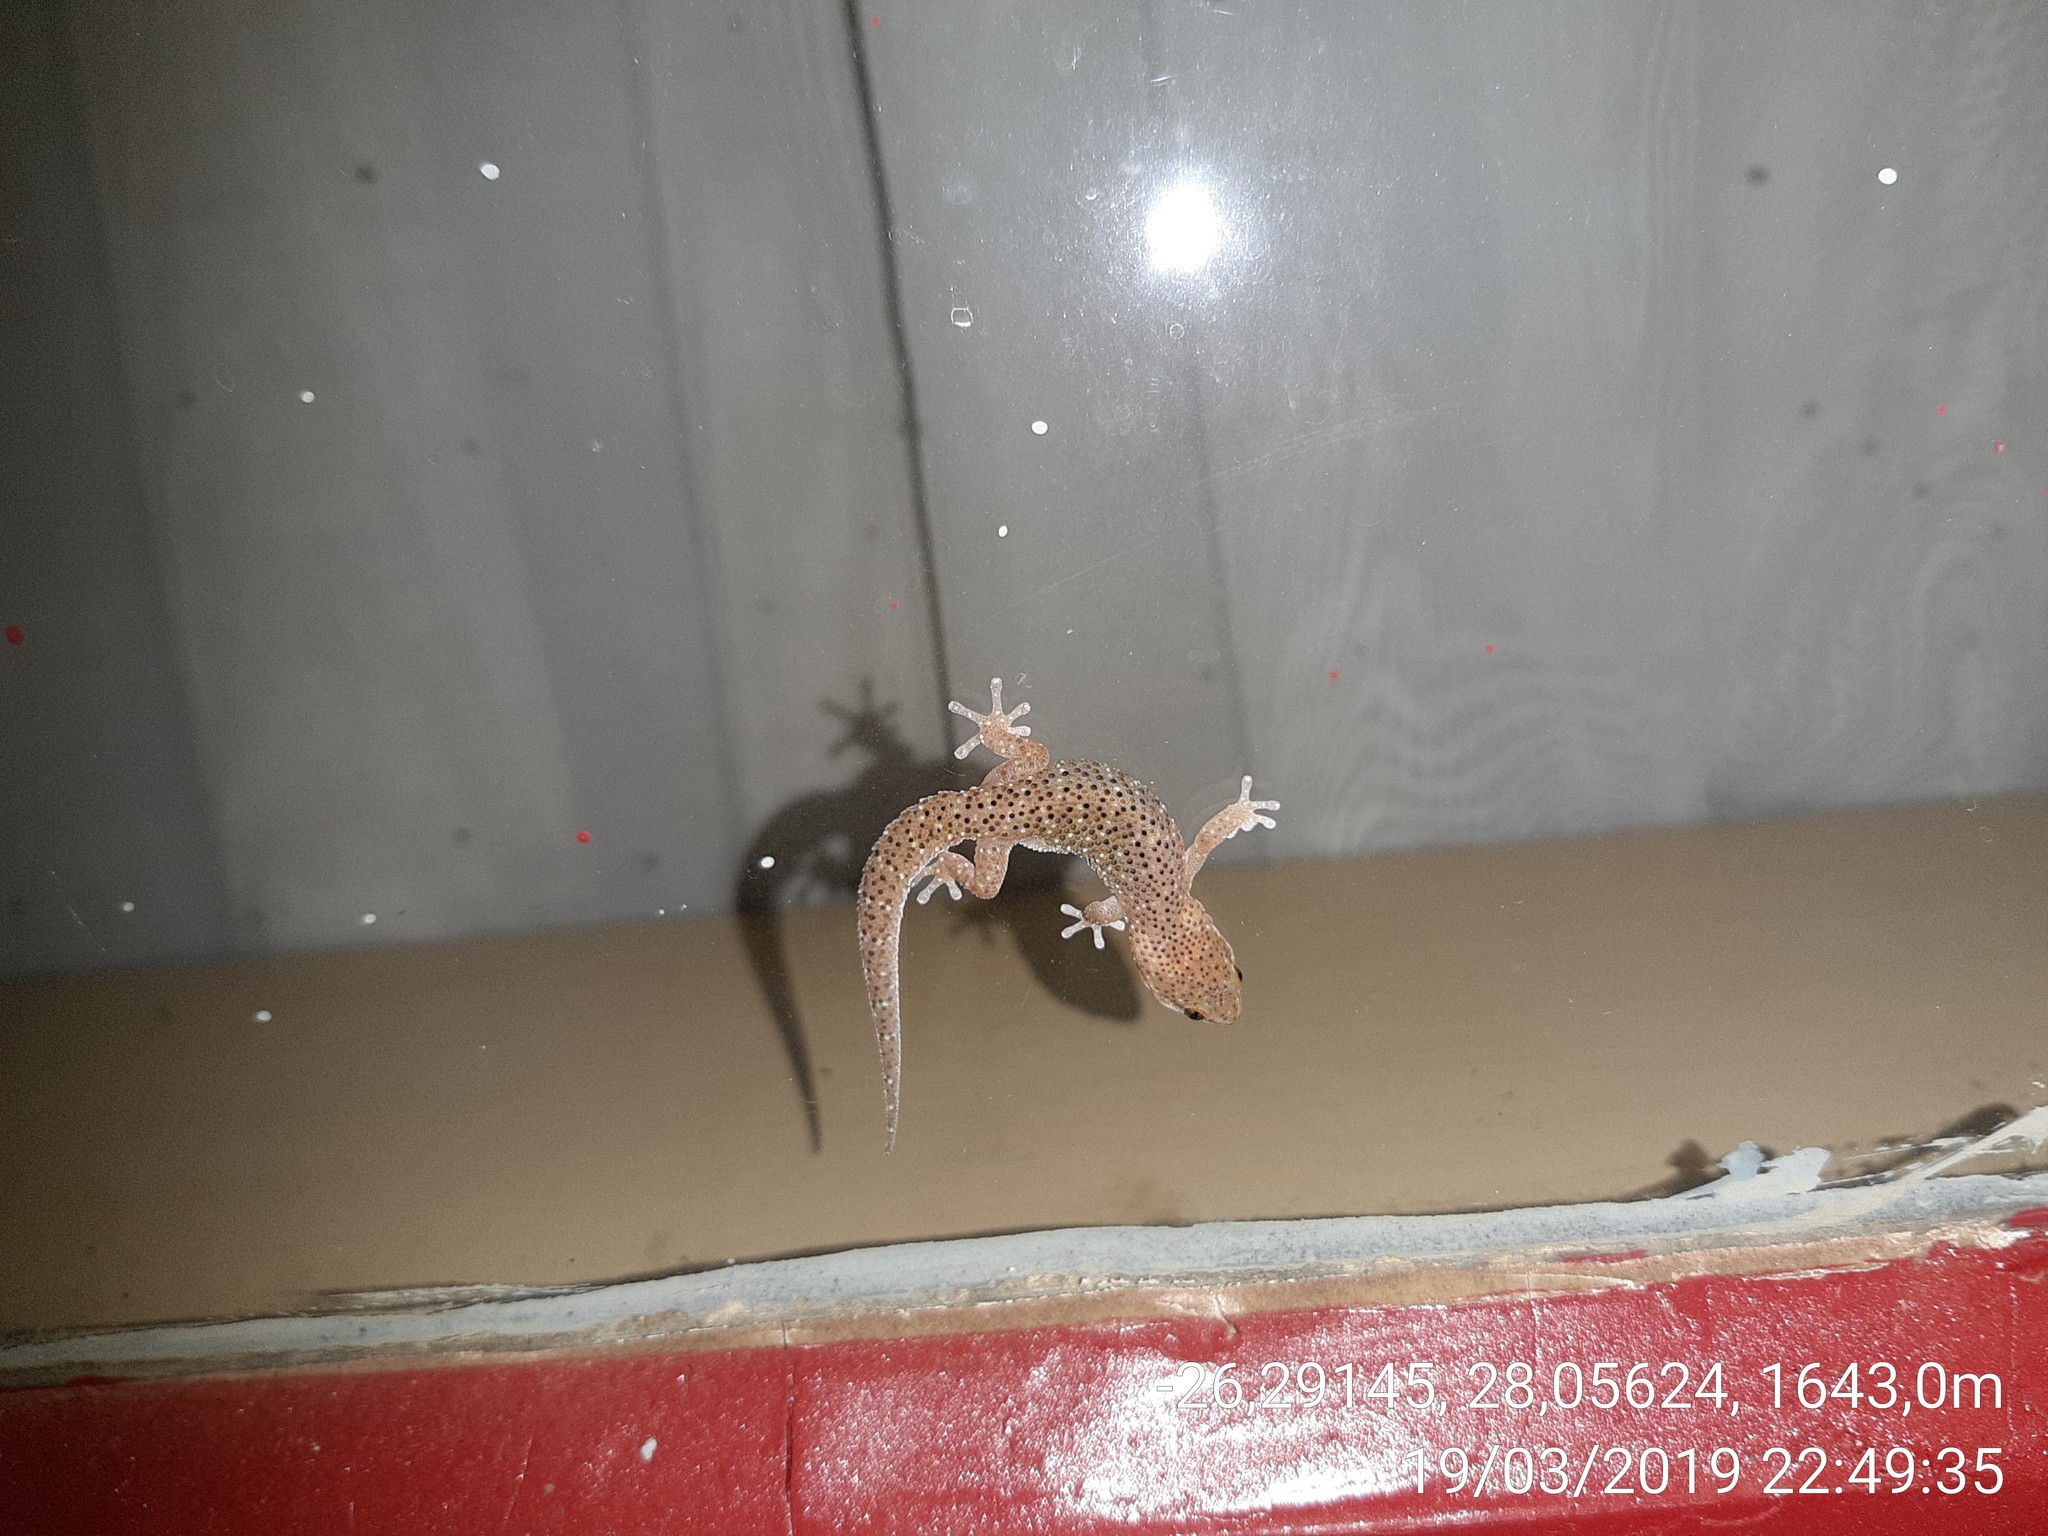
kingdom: Animalia
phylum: Chordata
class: Squamata
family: Gekkonidae
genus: Pachydactylus
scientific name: Pachydactylus affinis
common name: Transvaal gecko
